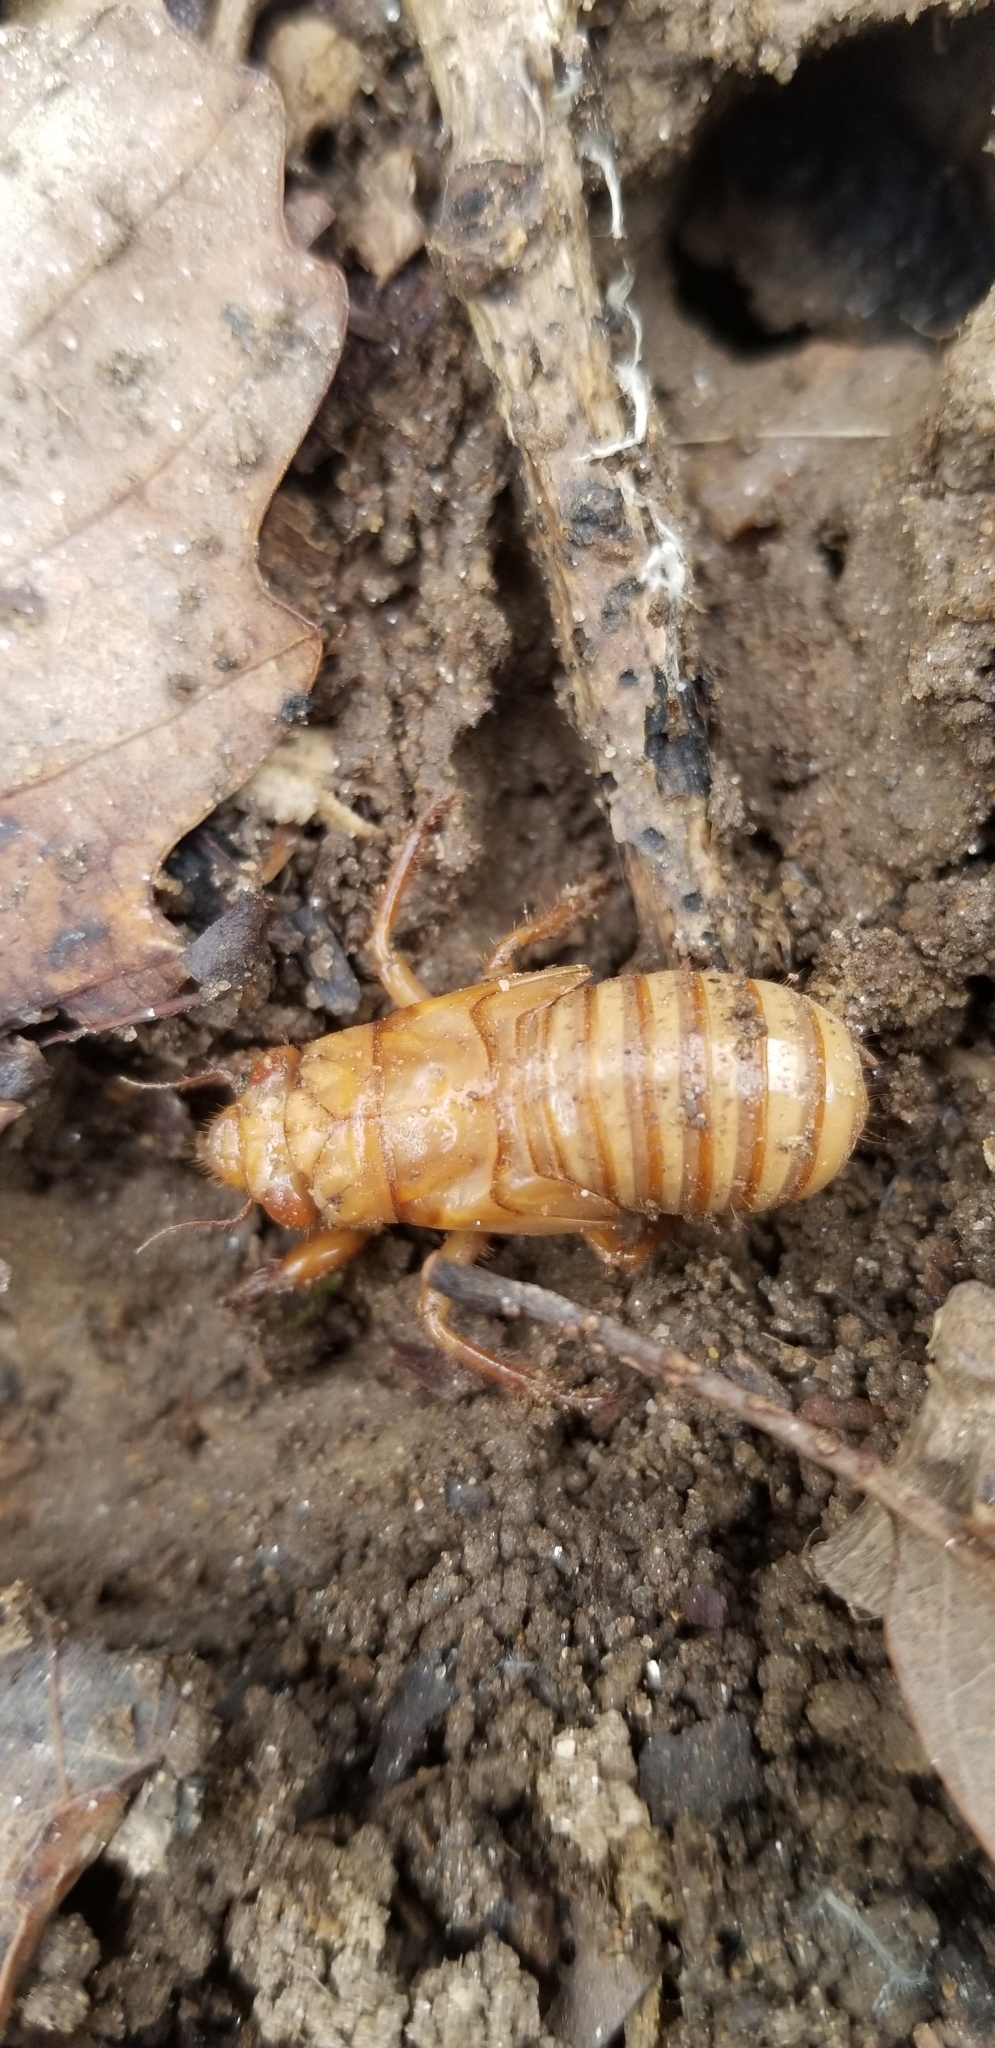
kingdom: Animalia
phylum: Arthropoda
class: Insecta
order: Hemiptera
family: Cicadidae
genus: Magicicada
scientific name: Magicicada
